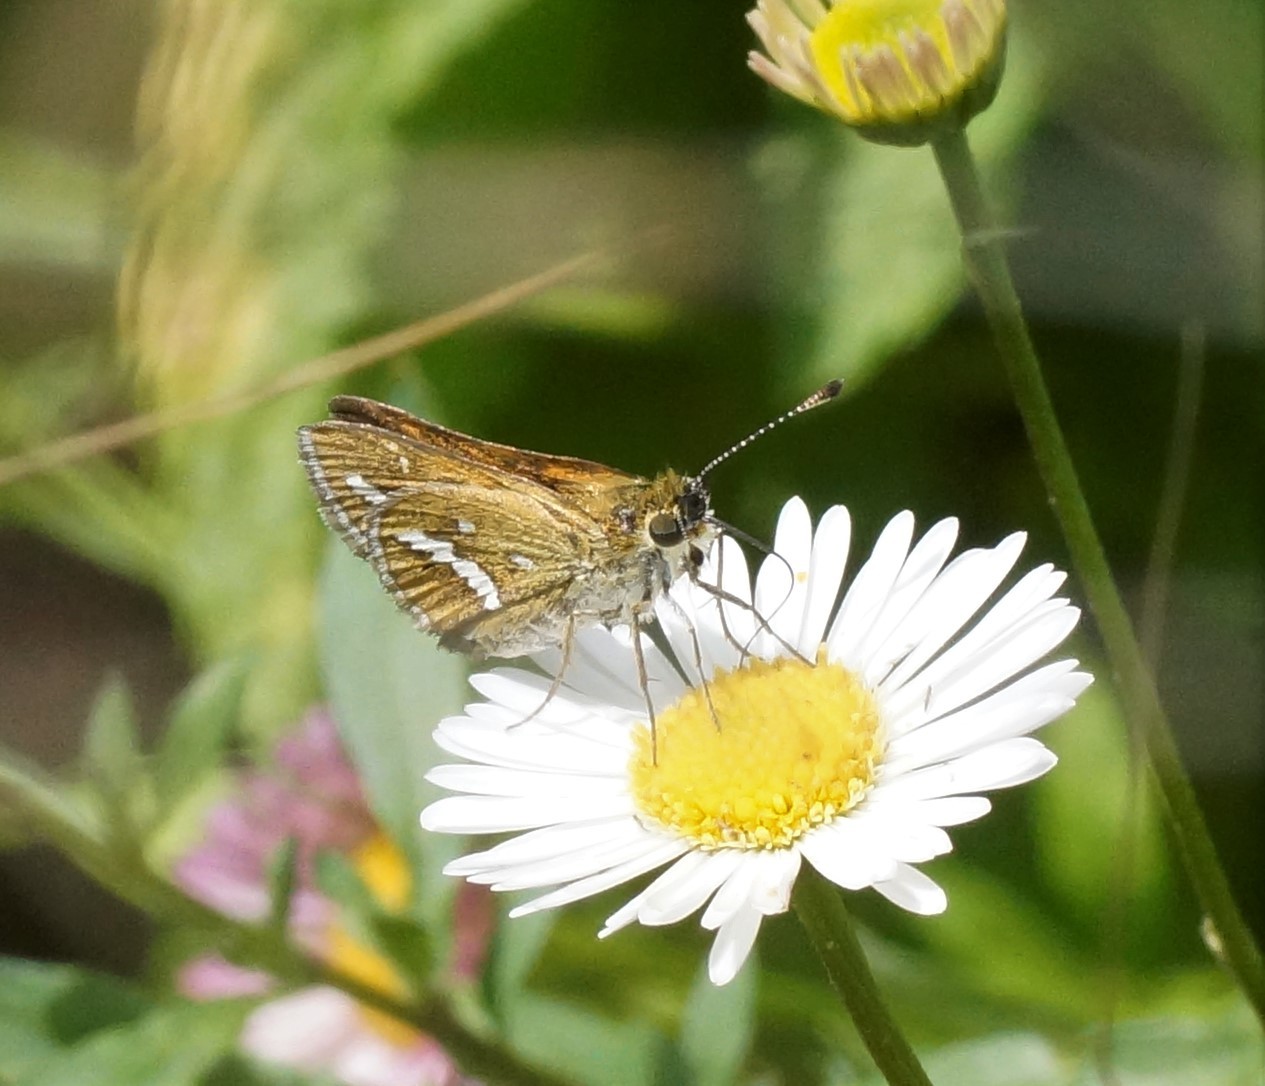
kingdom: Animalia
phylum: Arthropoda
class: Insecta
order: Lepidoptera
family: Hesperiidae
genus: Taractrocera
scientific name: Taractrocera papyria
